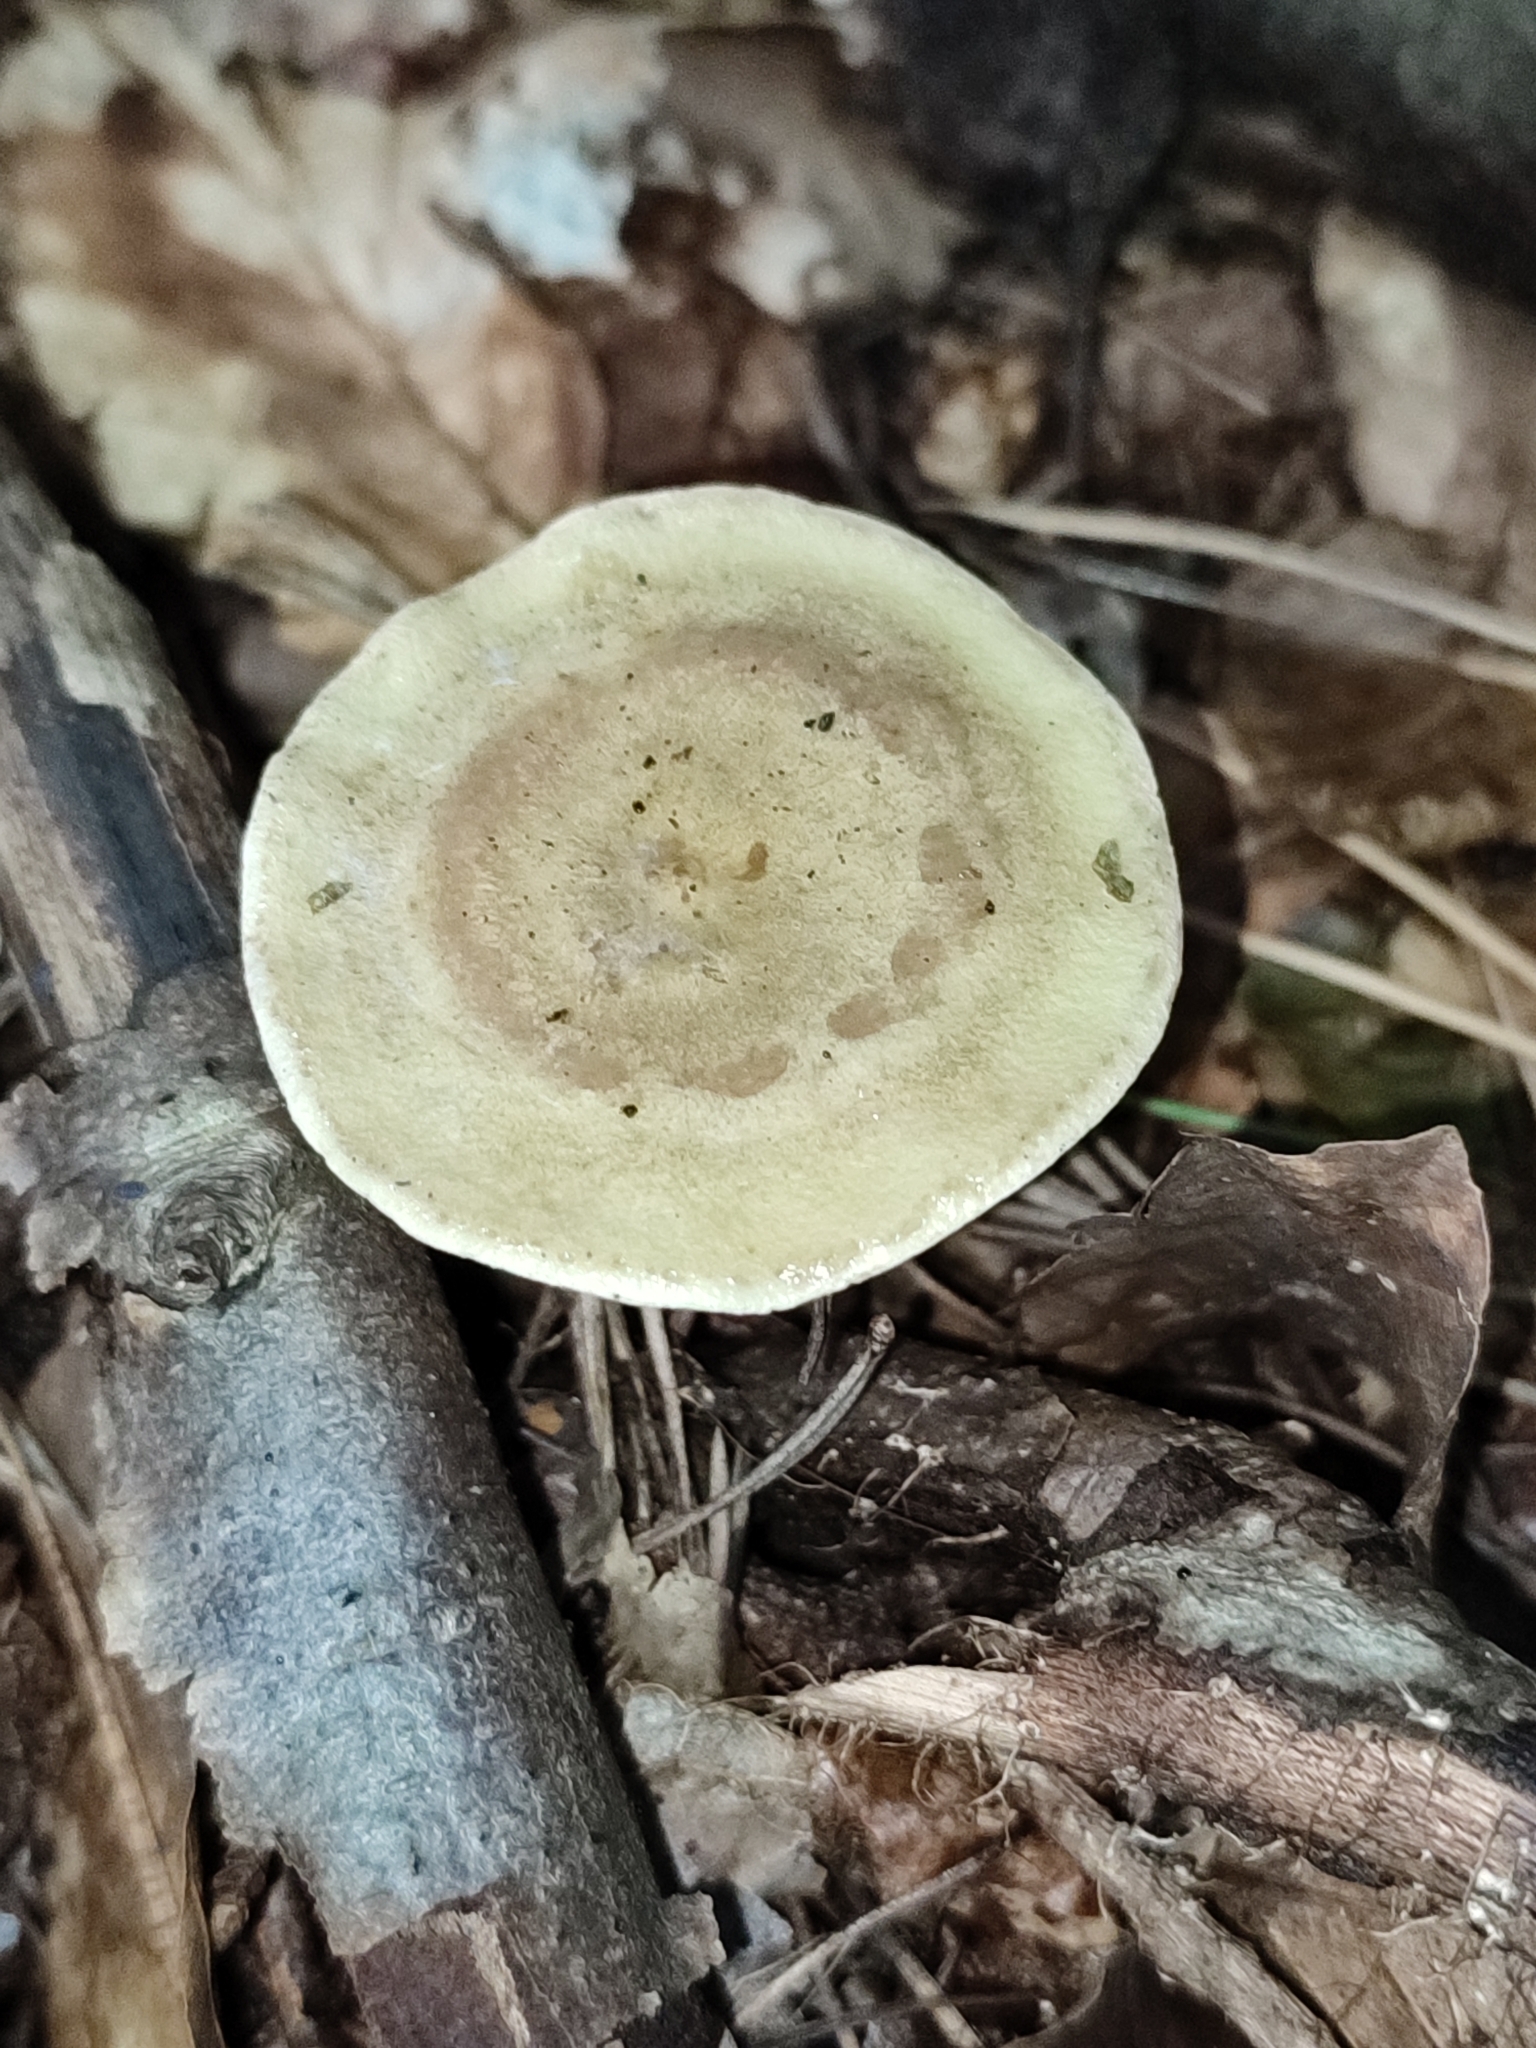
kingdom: Fungi
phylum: Basidiomycota
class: Agaricomycetes
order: Russulales
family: Russulaceae
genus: Lactarius
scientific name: Lactarius blennius
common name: Beech milkcap
